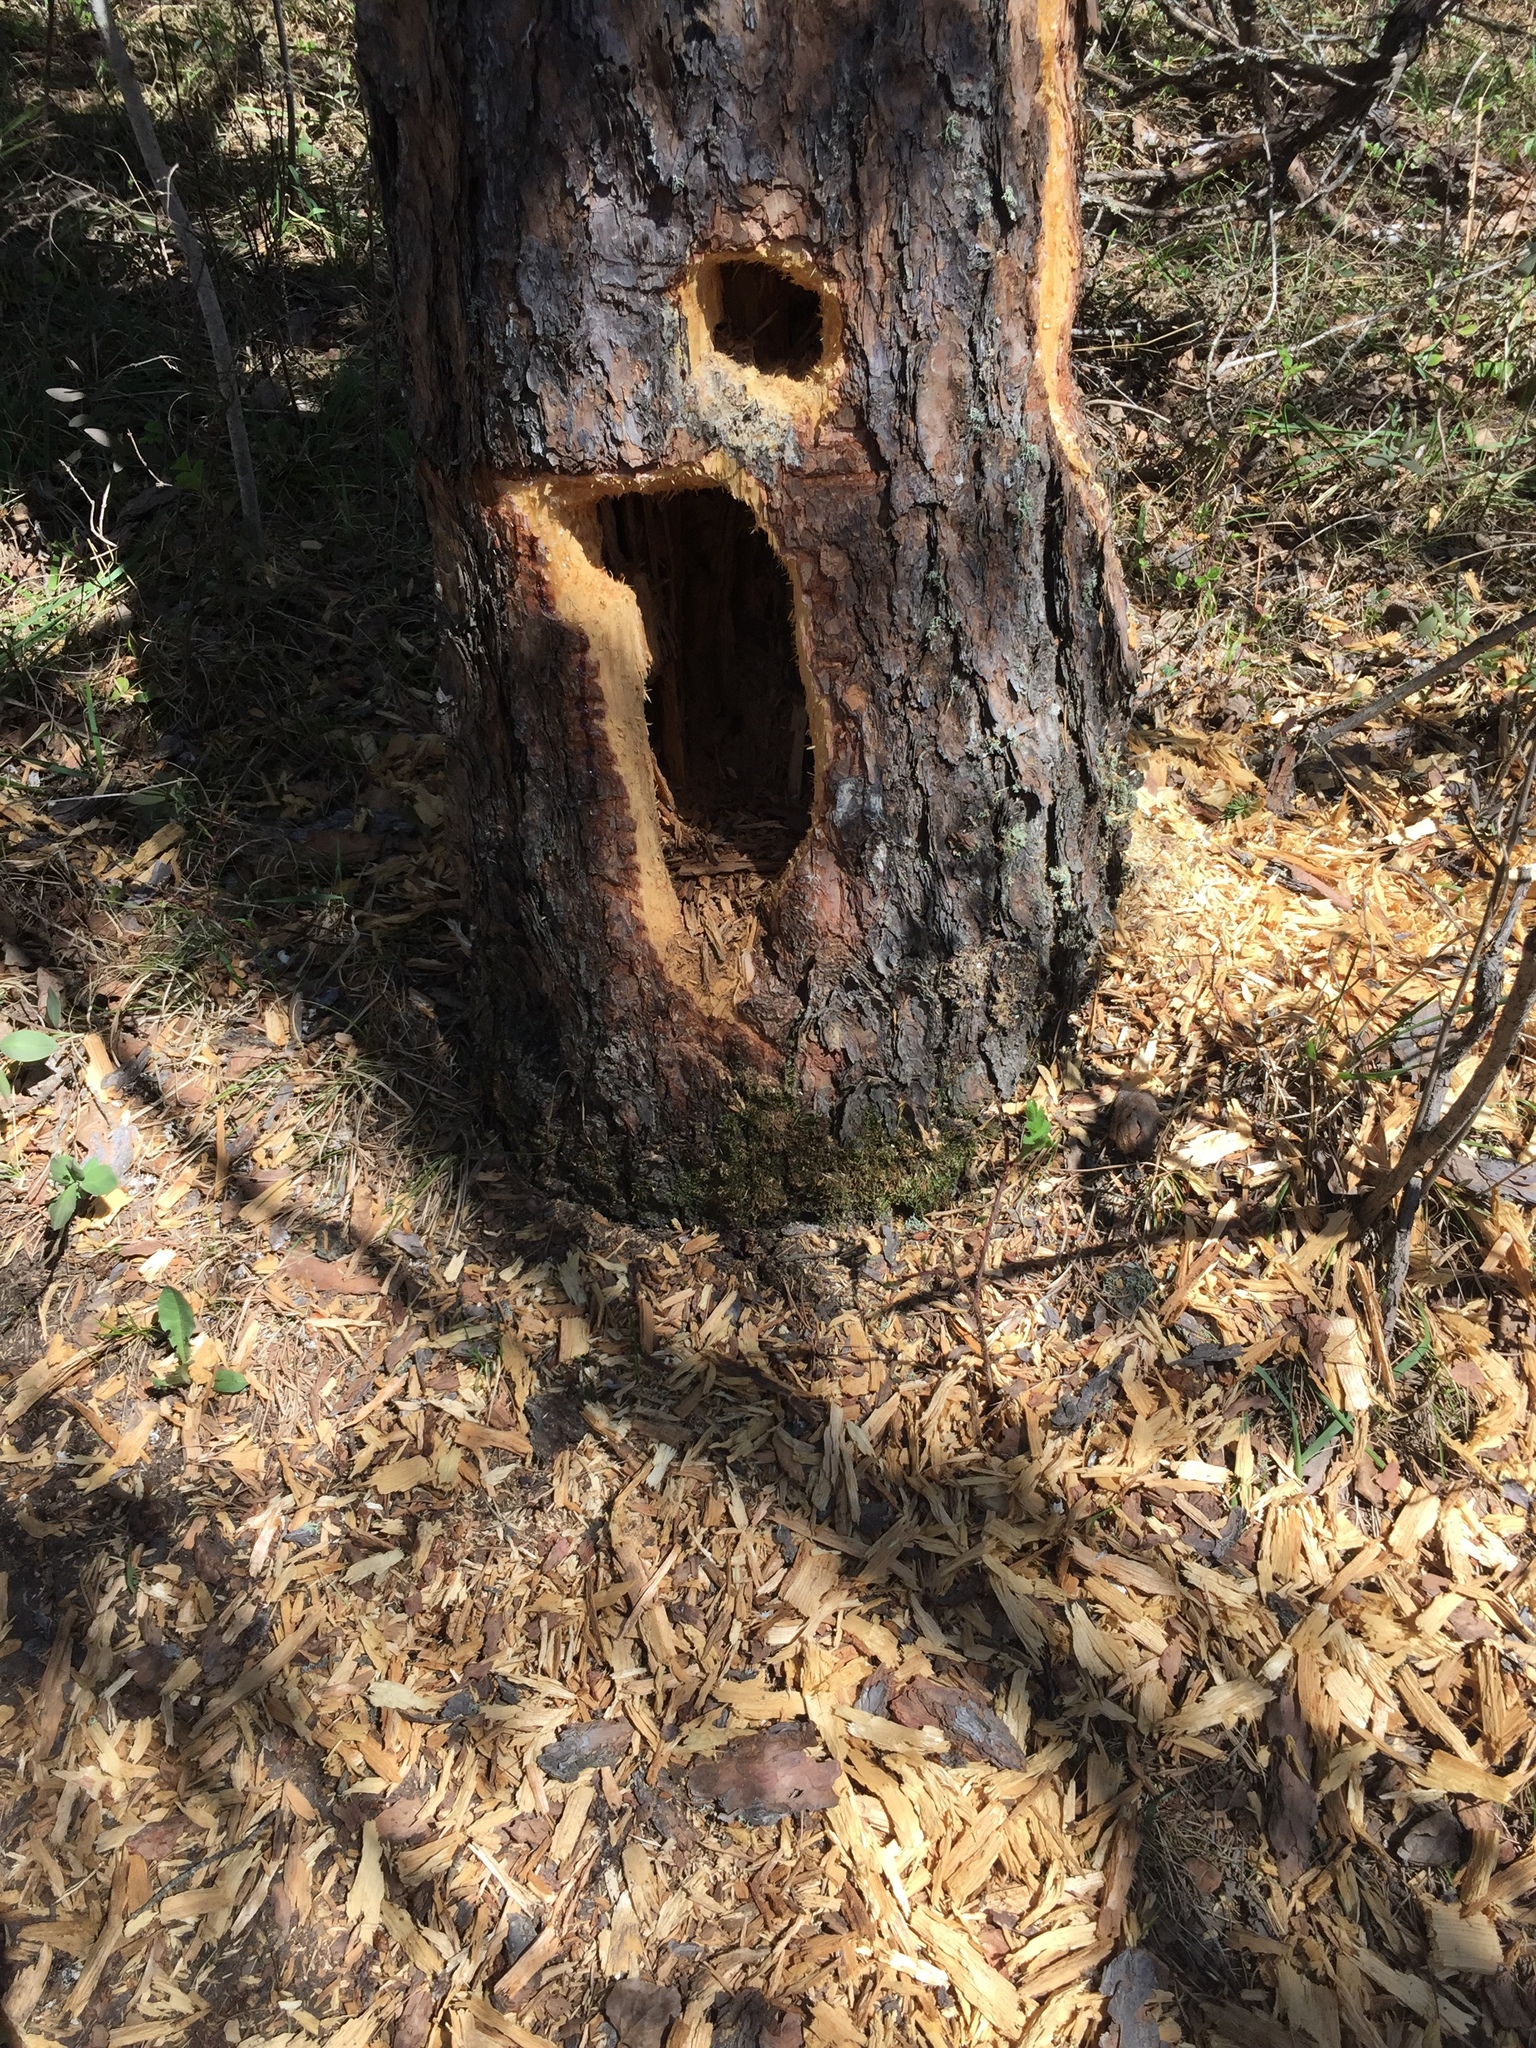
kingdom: Animalia
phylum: Chordata
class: Aves
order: Piciformes
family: Picidae
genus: Dryocopus
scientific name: Dryocopus pileatus
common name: Pileated woodpecker
